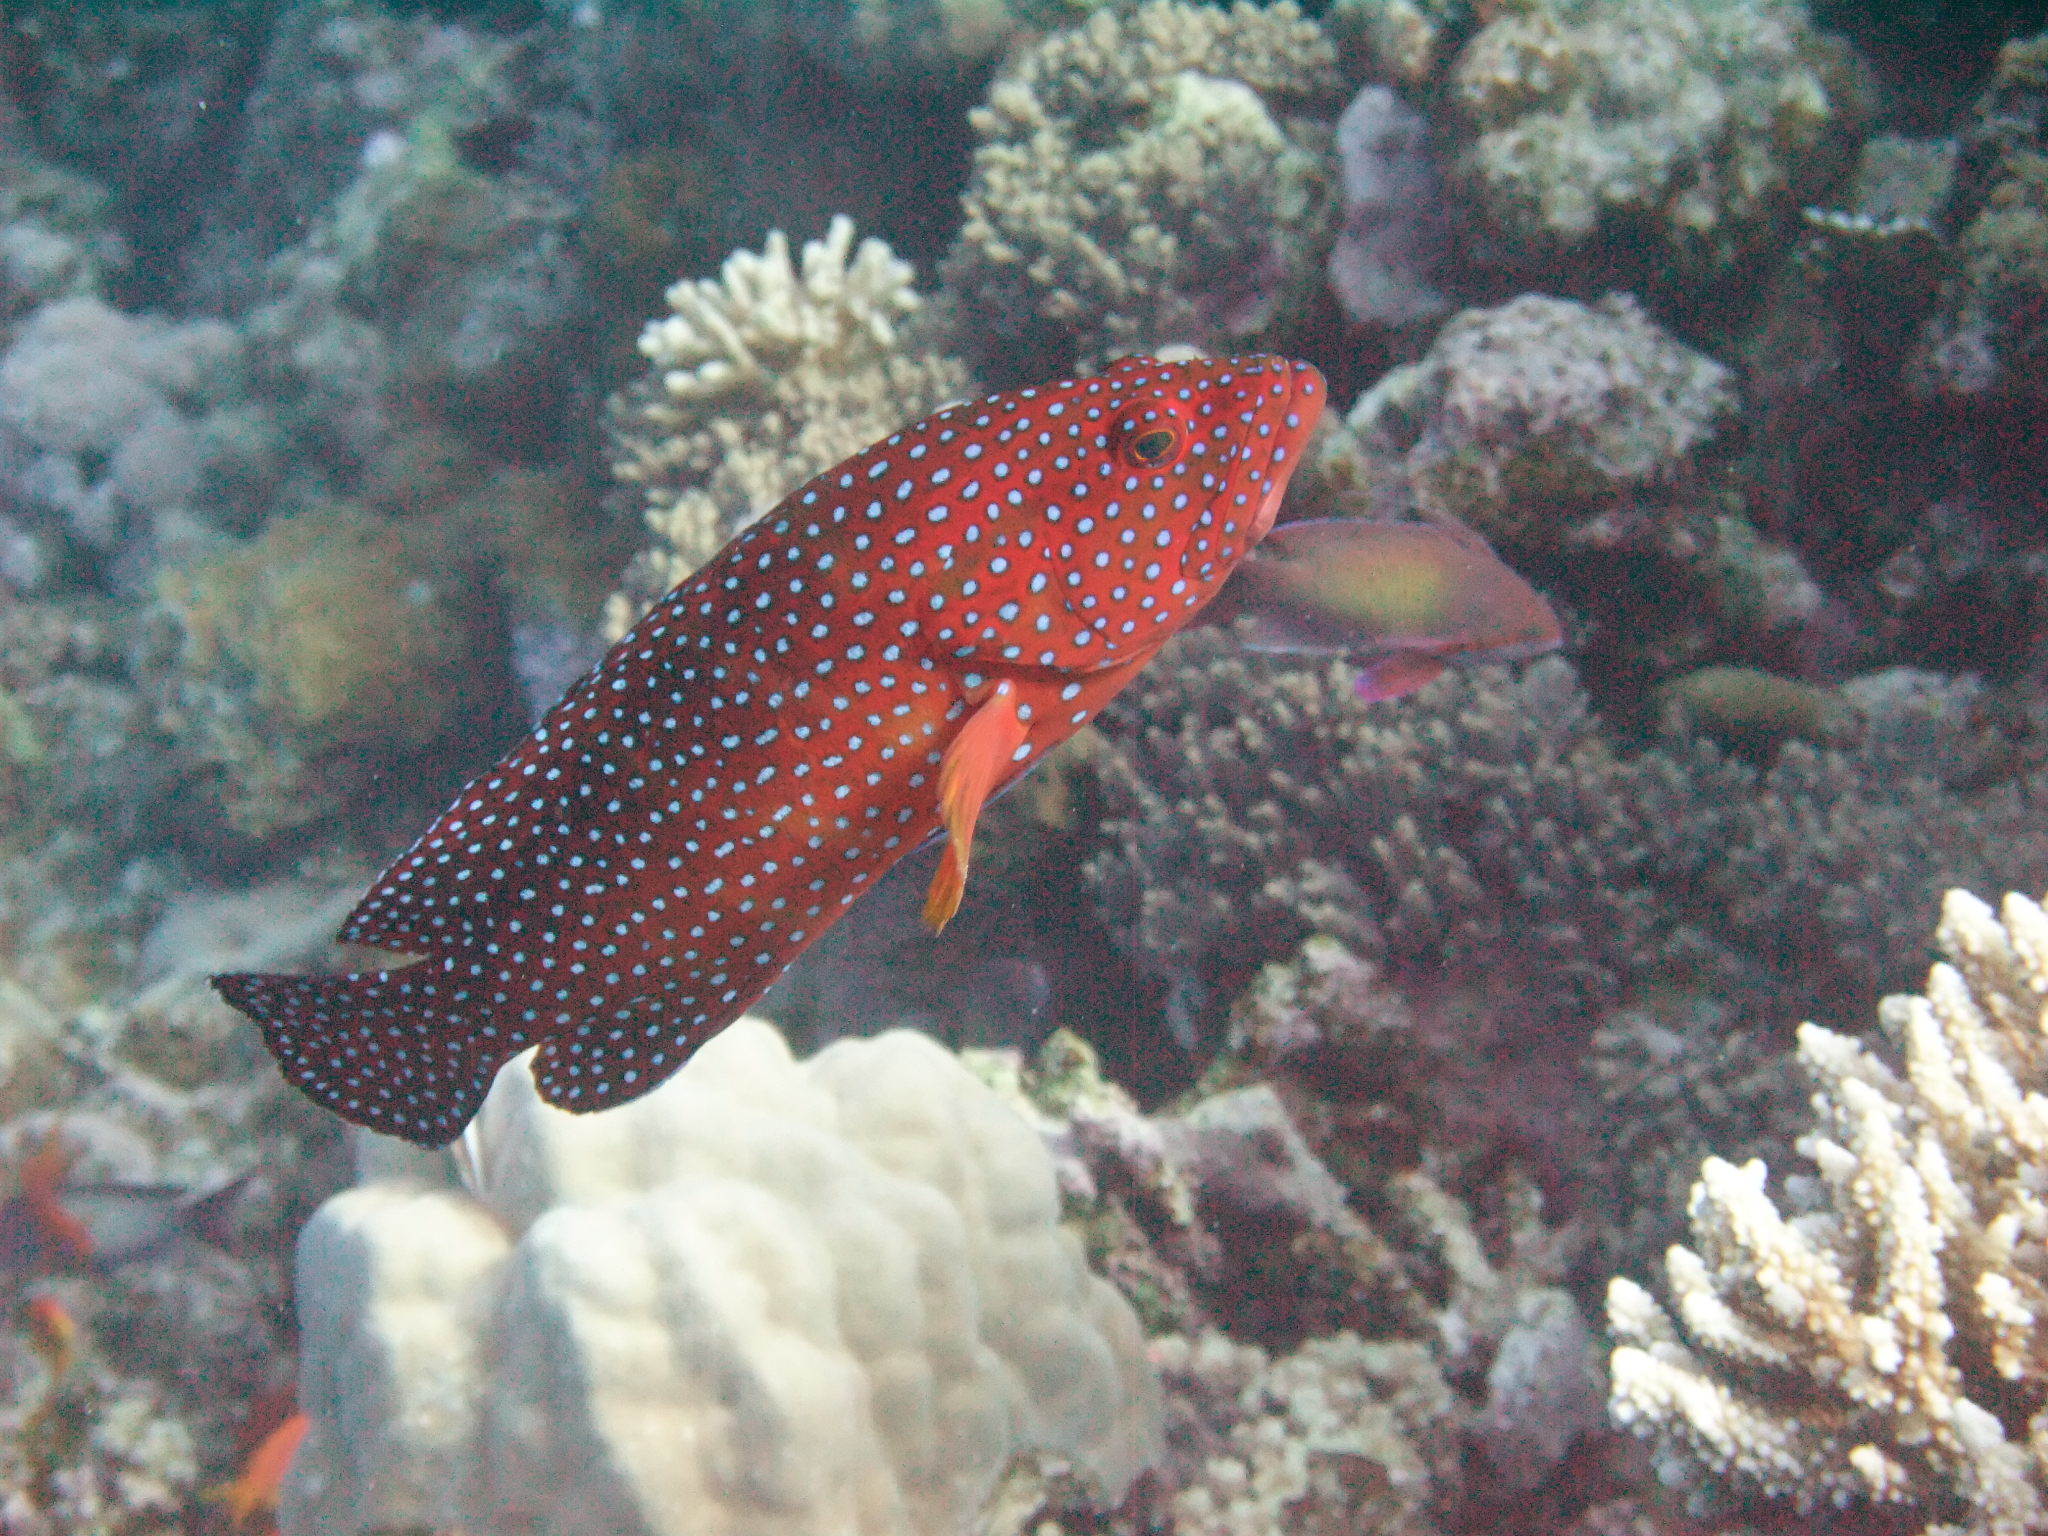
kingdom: Animalia
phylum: Chordata
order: Perciformes
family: Serranidae
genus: Cephalopholis
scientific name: Cephalopholis miniata
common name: Coral hind
